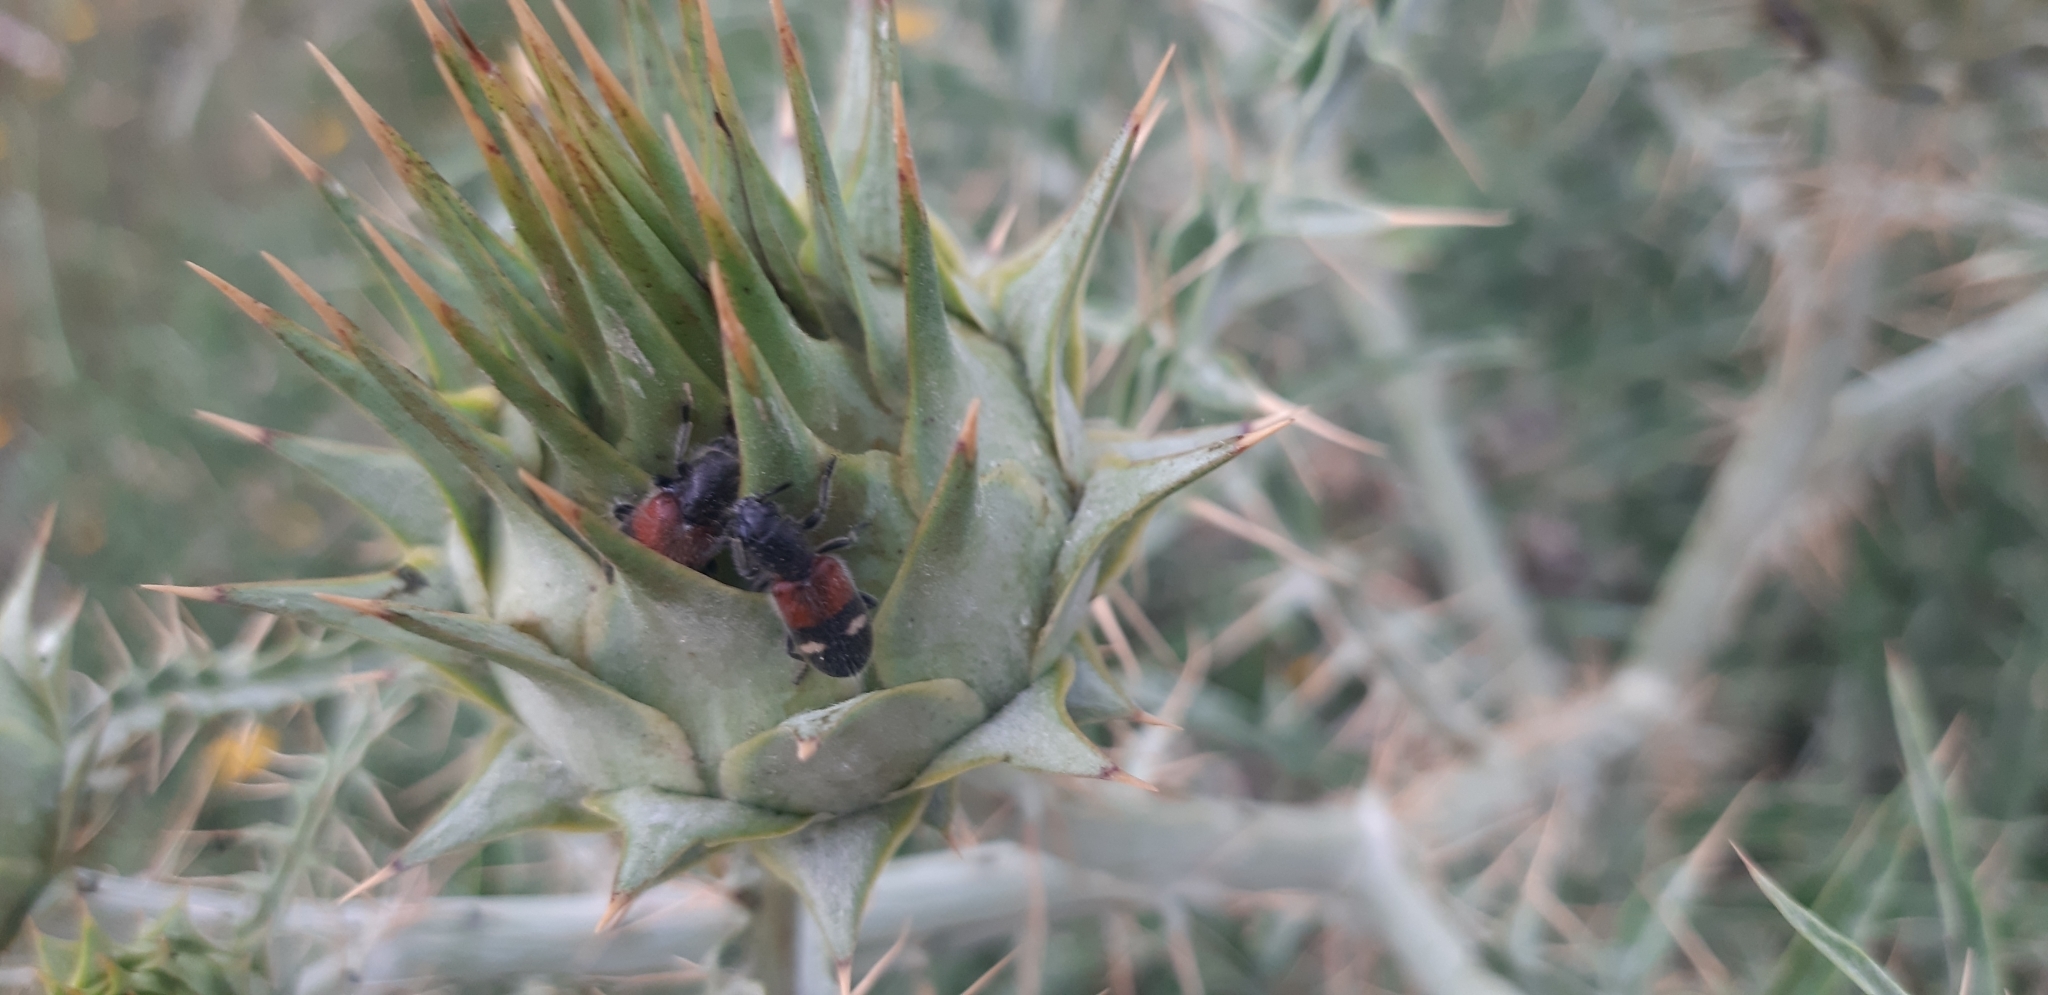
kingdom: Animalia
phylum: Arthropoda
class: Insecta
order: Coleoptera
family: Cleridae
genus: Tilloidea
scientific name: Tilloidea transversalis
